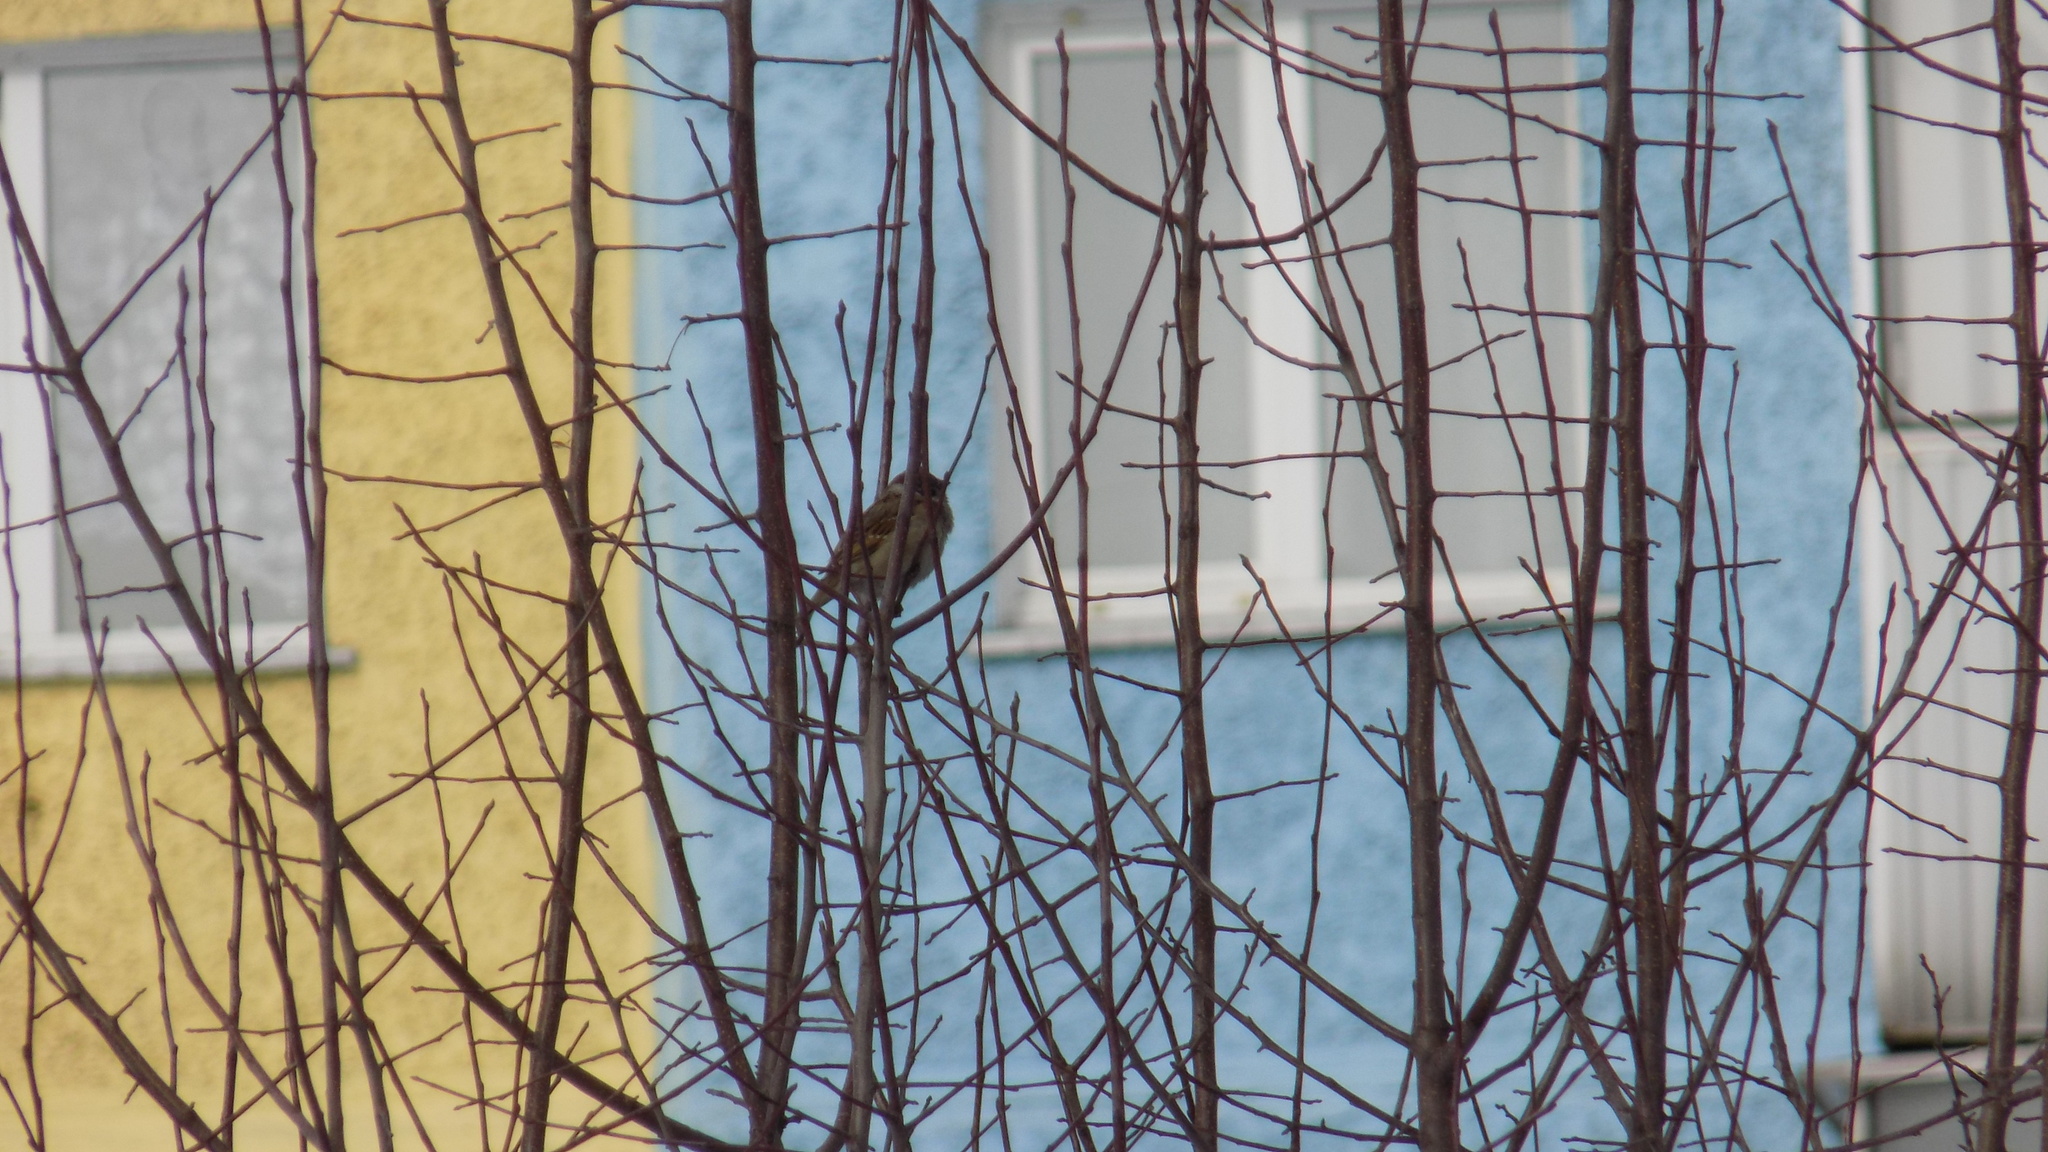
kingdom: Animalia
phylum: Chordata
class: Aves
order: Passeriformes
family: Passeridae
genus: Passer
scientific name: Passer montanus
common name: Eurasian tree sparrow
